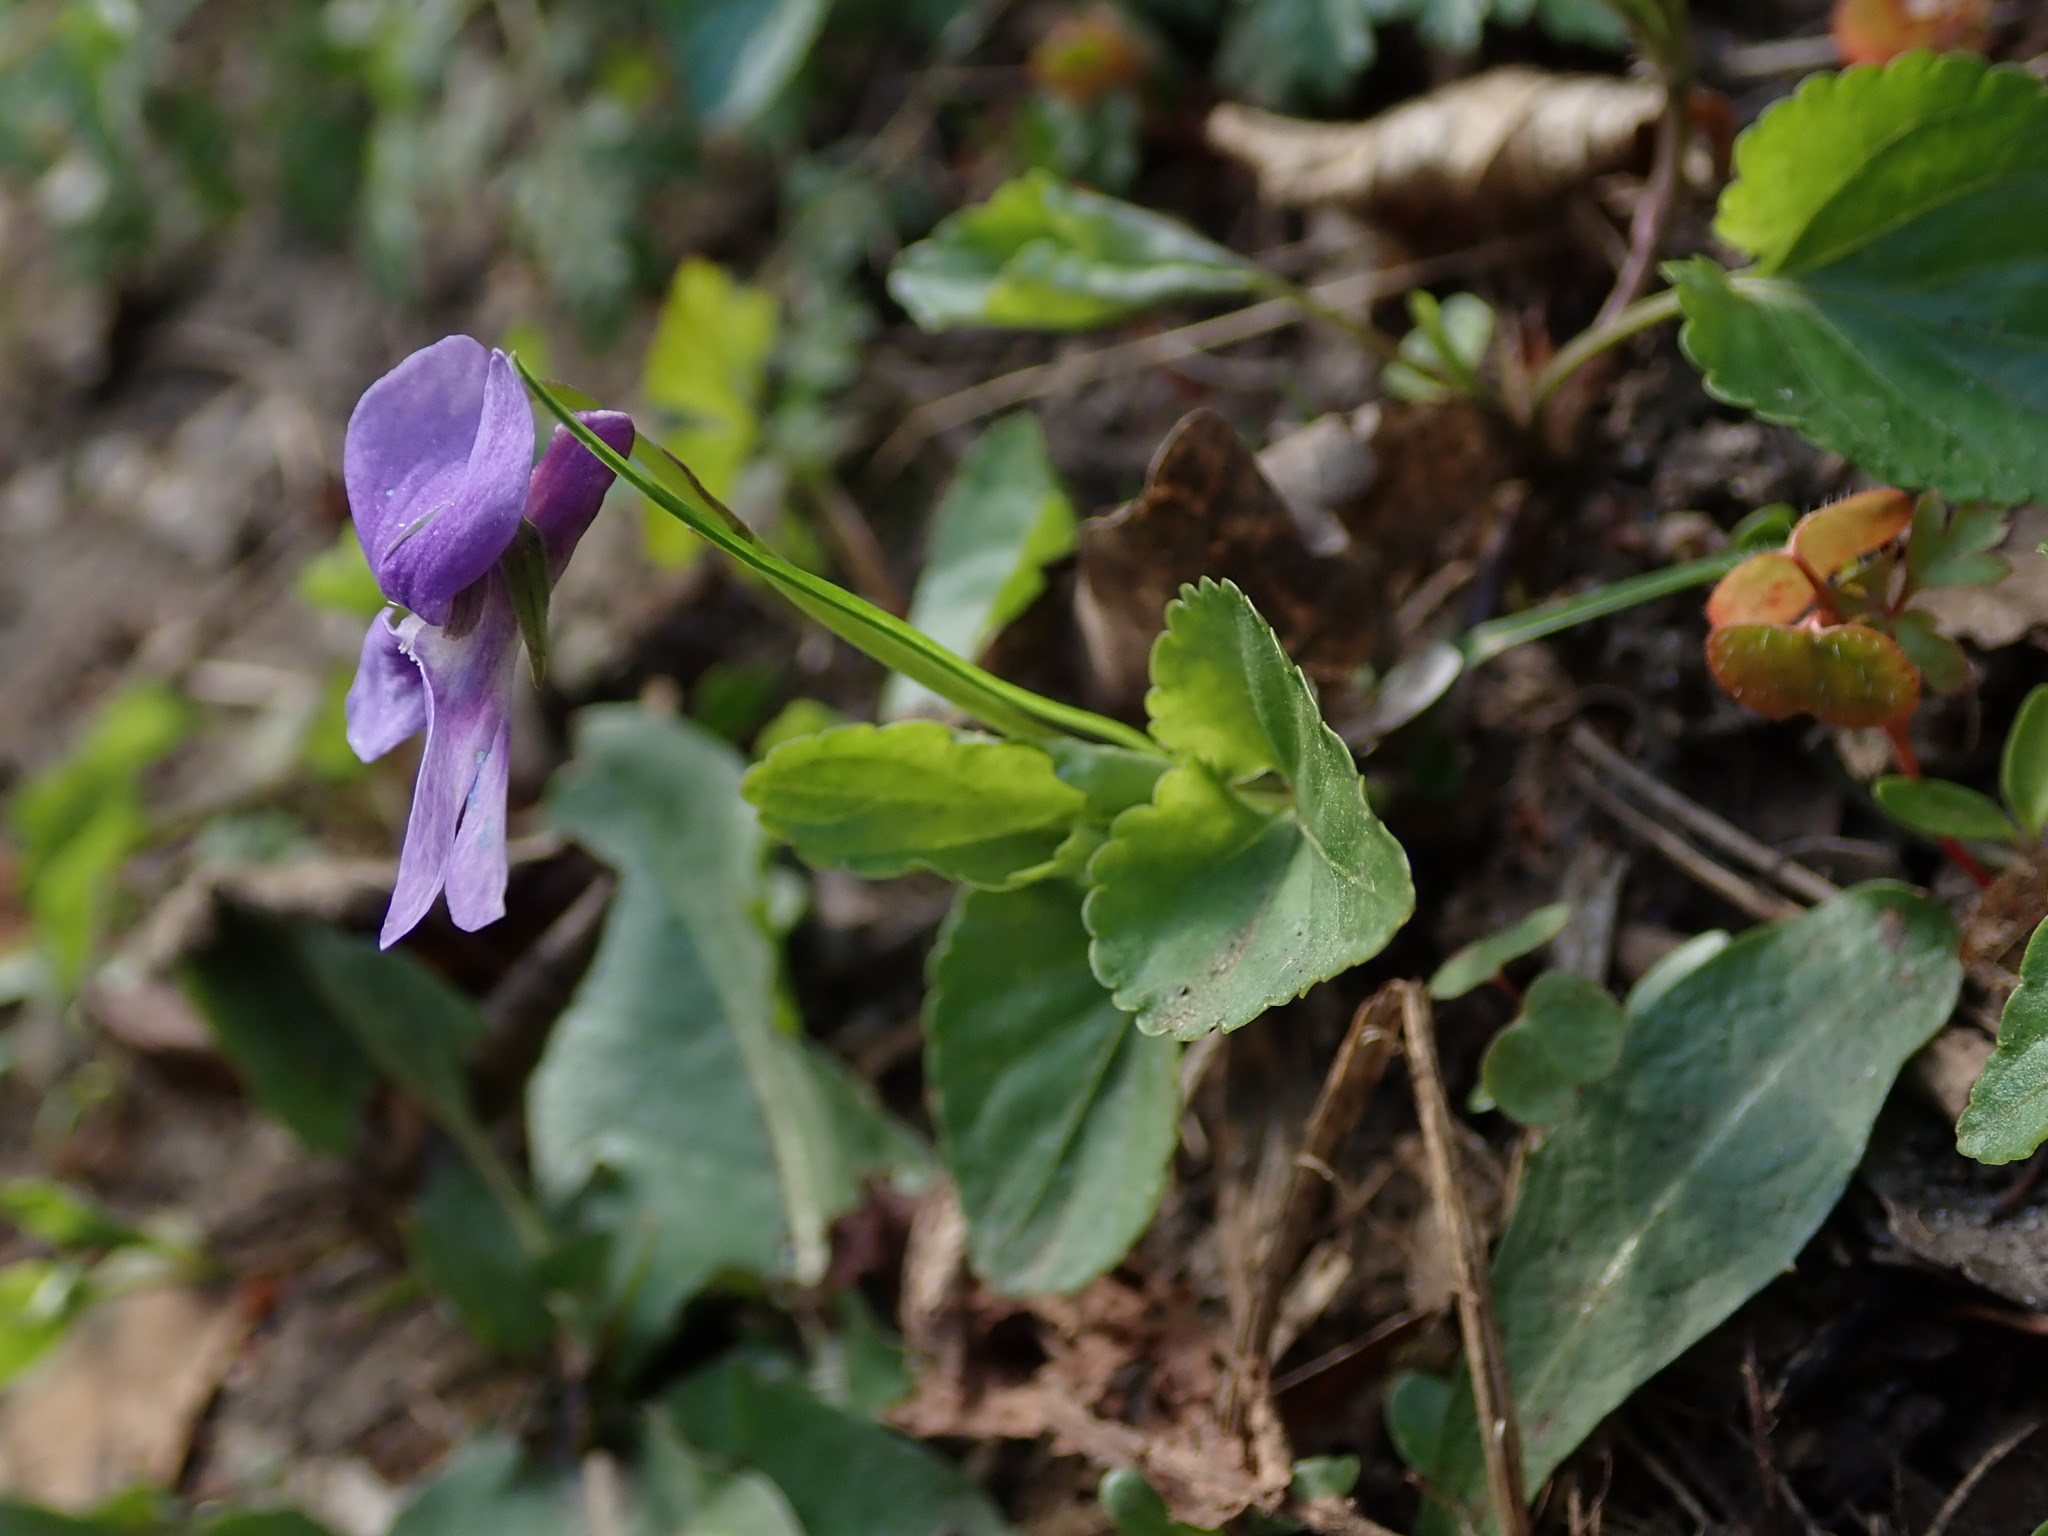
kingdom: Plantae
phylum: Tracheophyta
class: Magnoliopsida
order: Malpighiales
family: Violaceae
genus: Viola
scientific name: Viola reichenbachiana
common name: Early dog-violet
